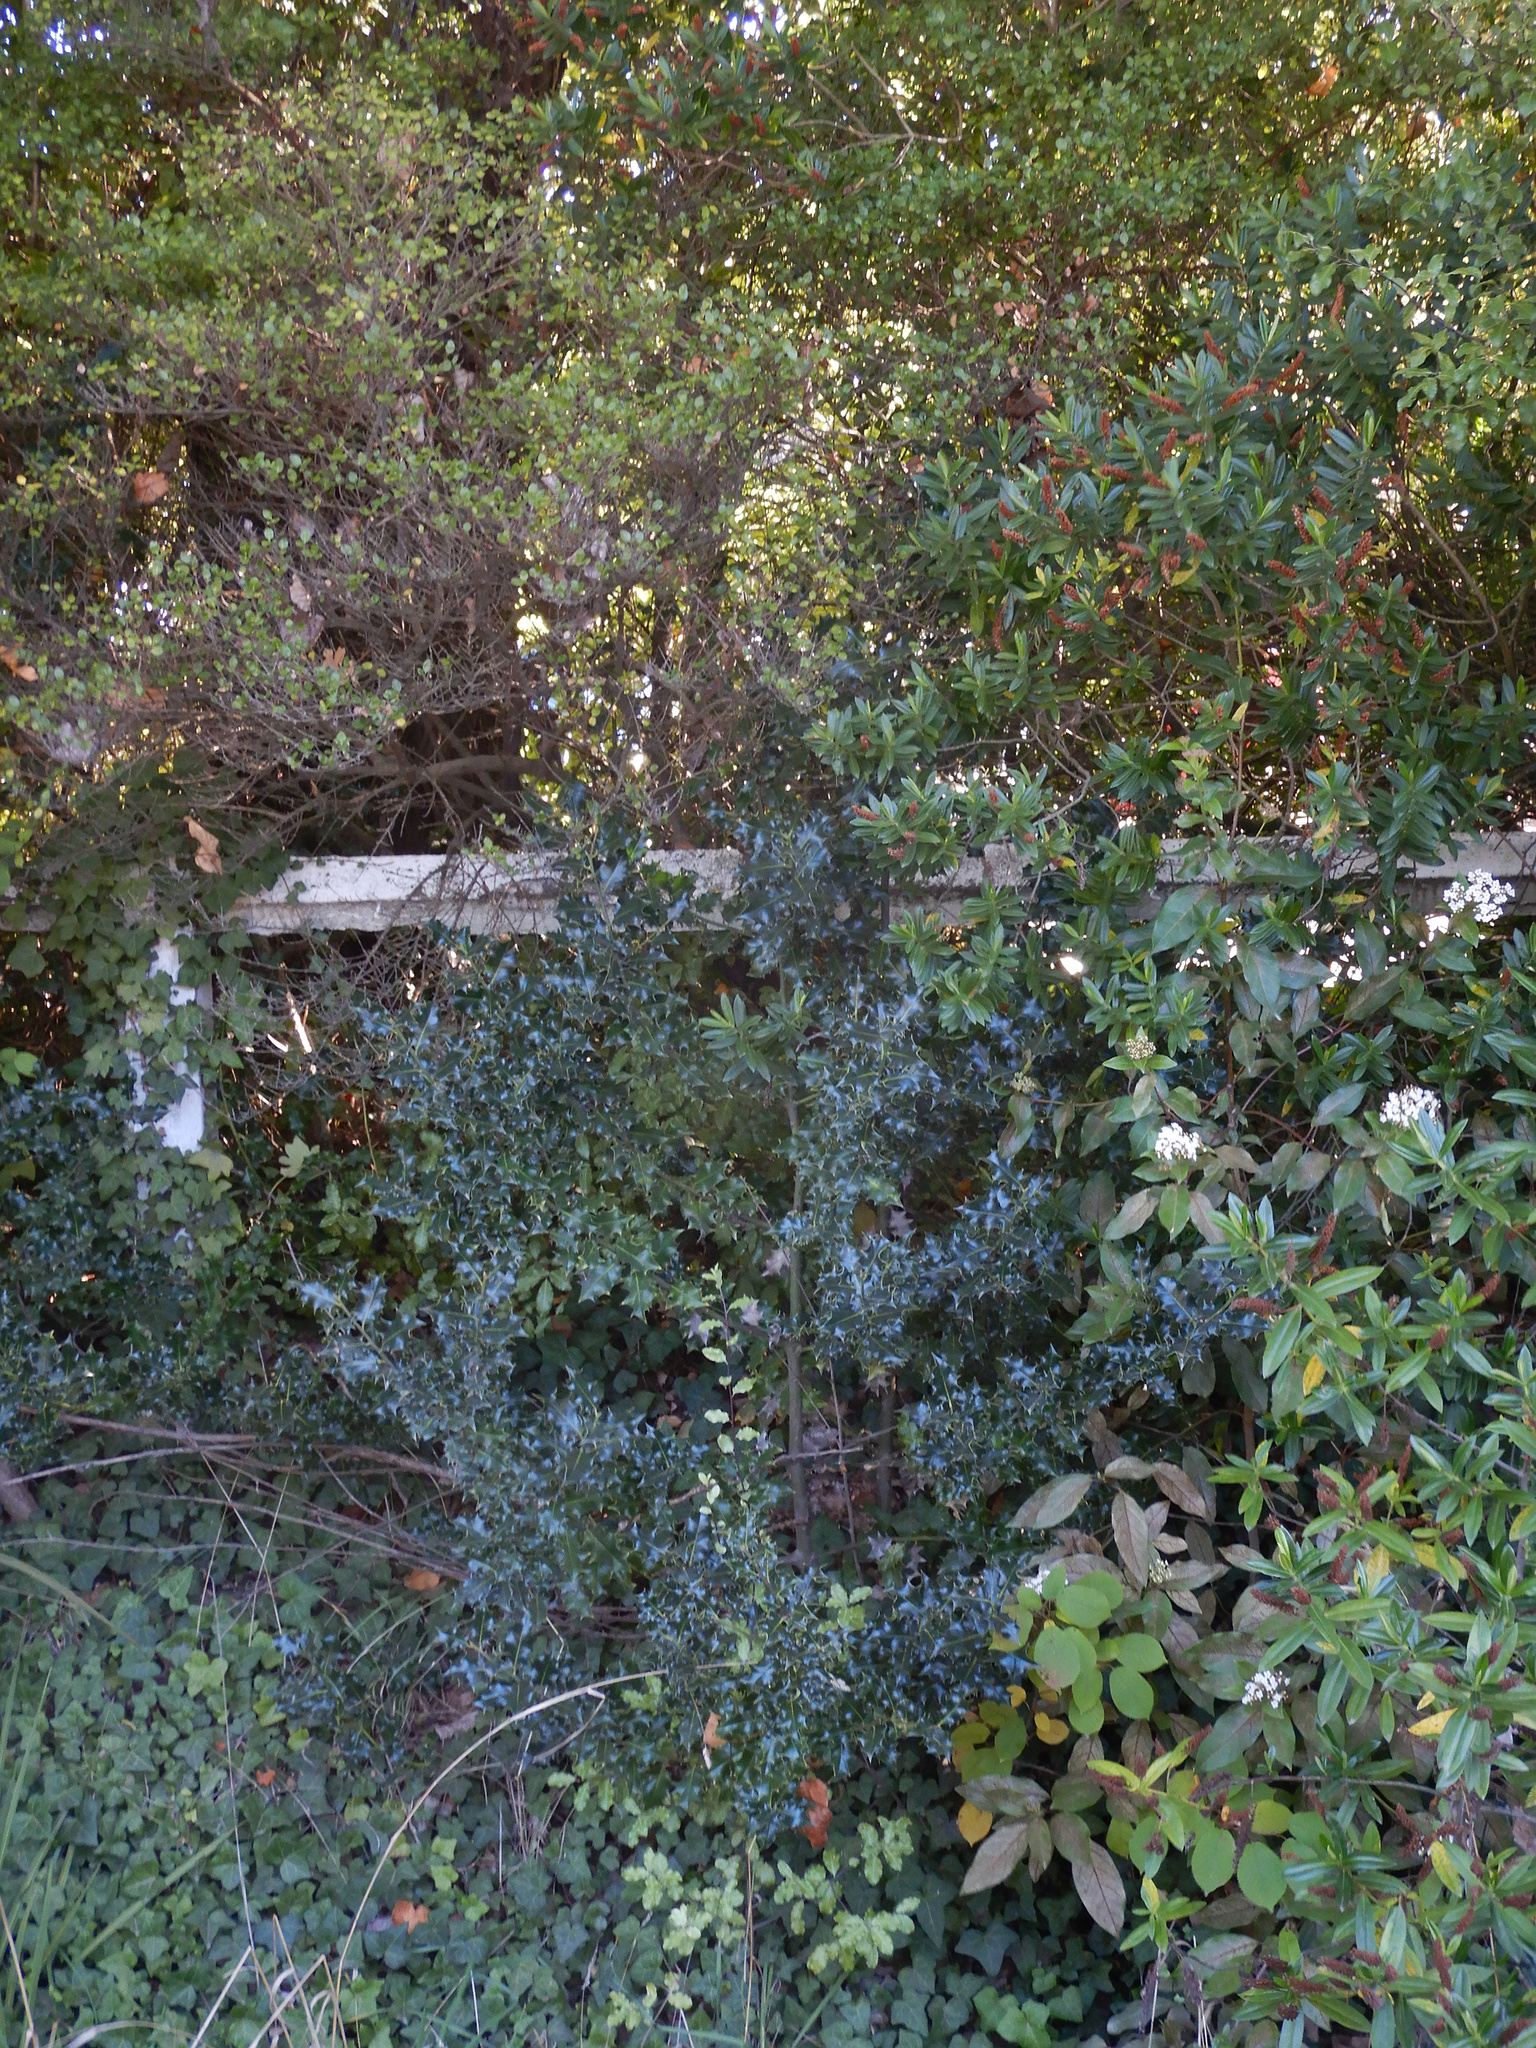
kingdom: Plantae
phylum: Tracheophyta
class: Magnoliopsida
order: Aquifoliales
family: Aquifoliaceae
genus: Ilex
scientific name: Ilex aquifolium
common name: English holly
